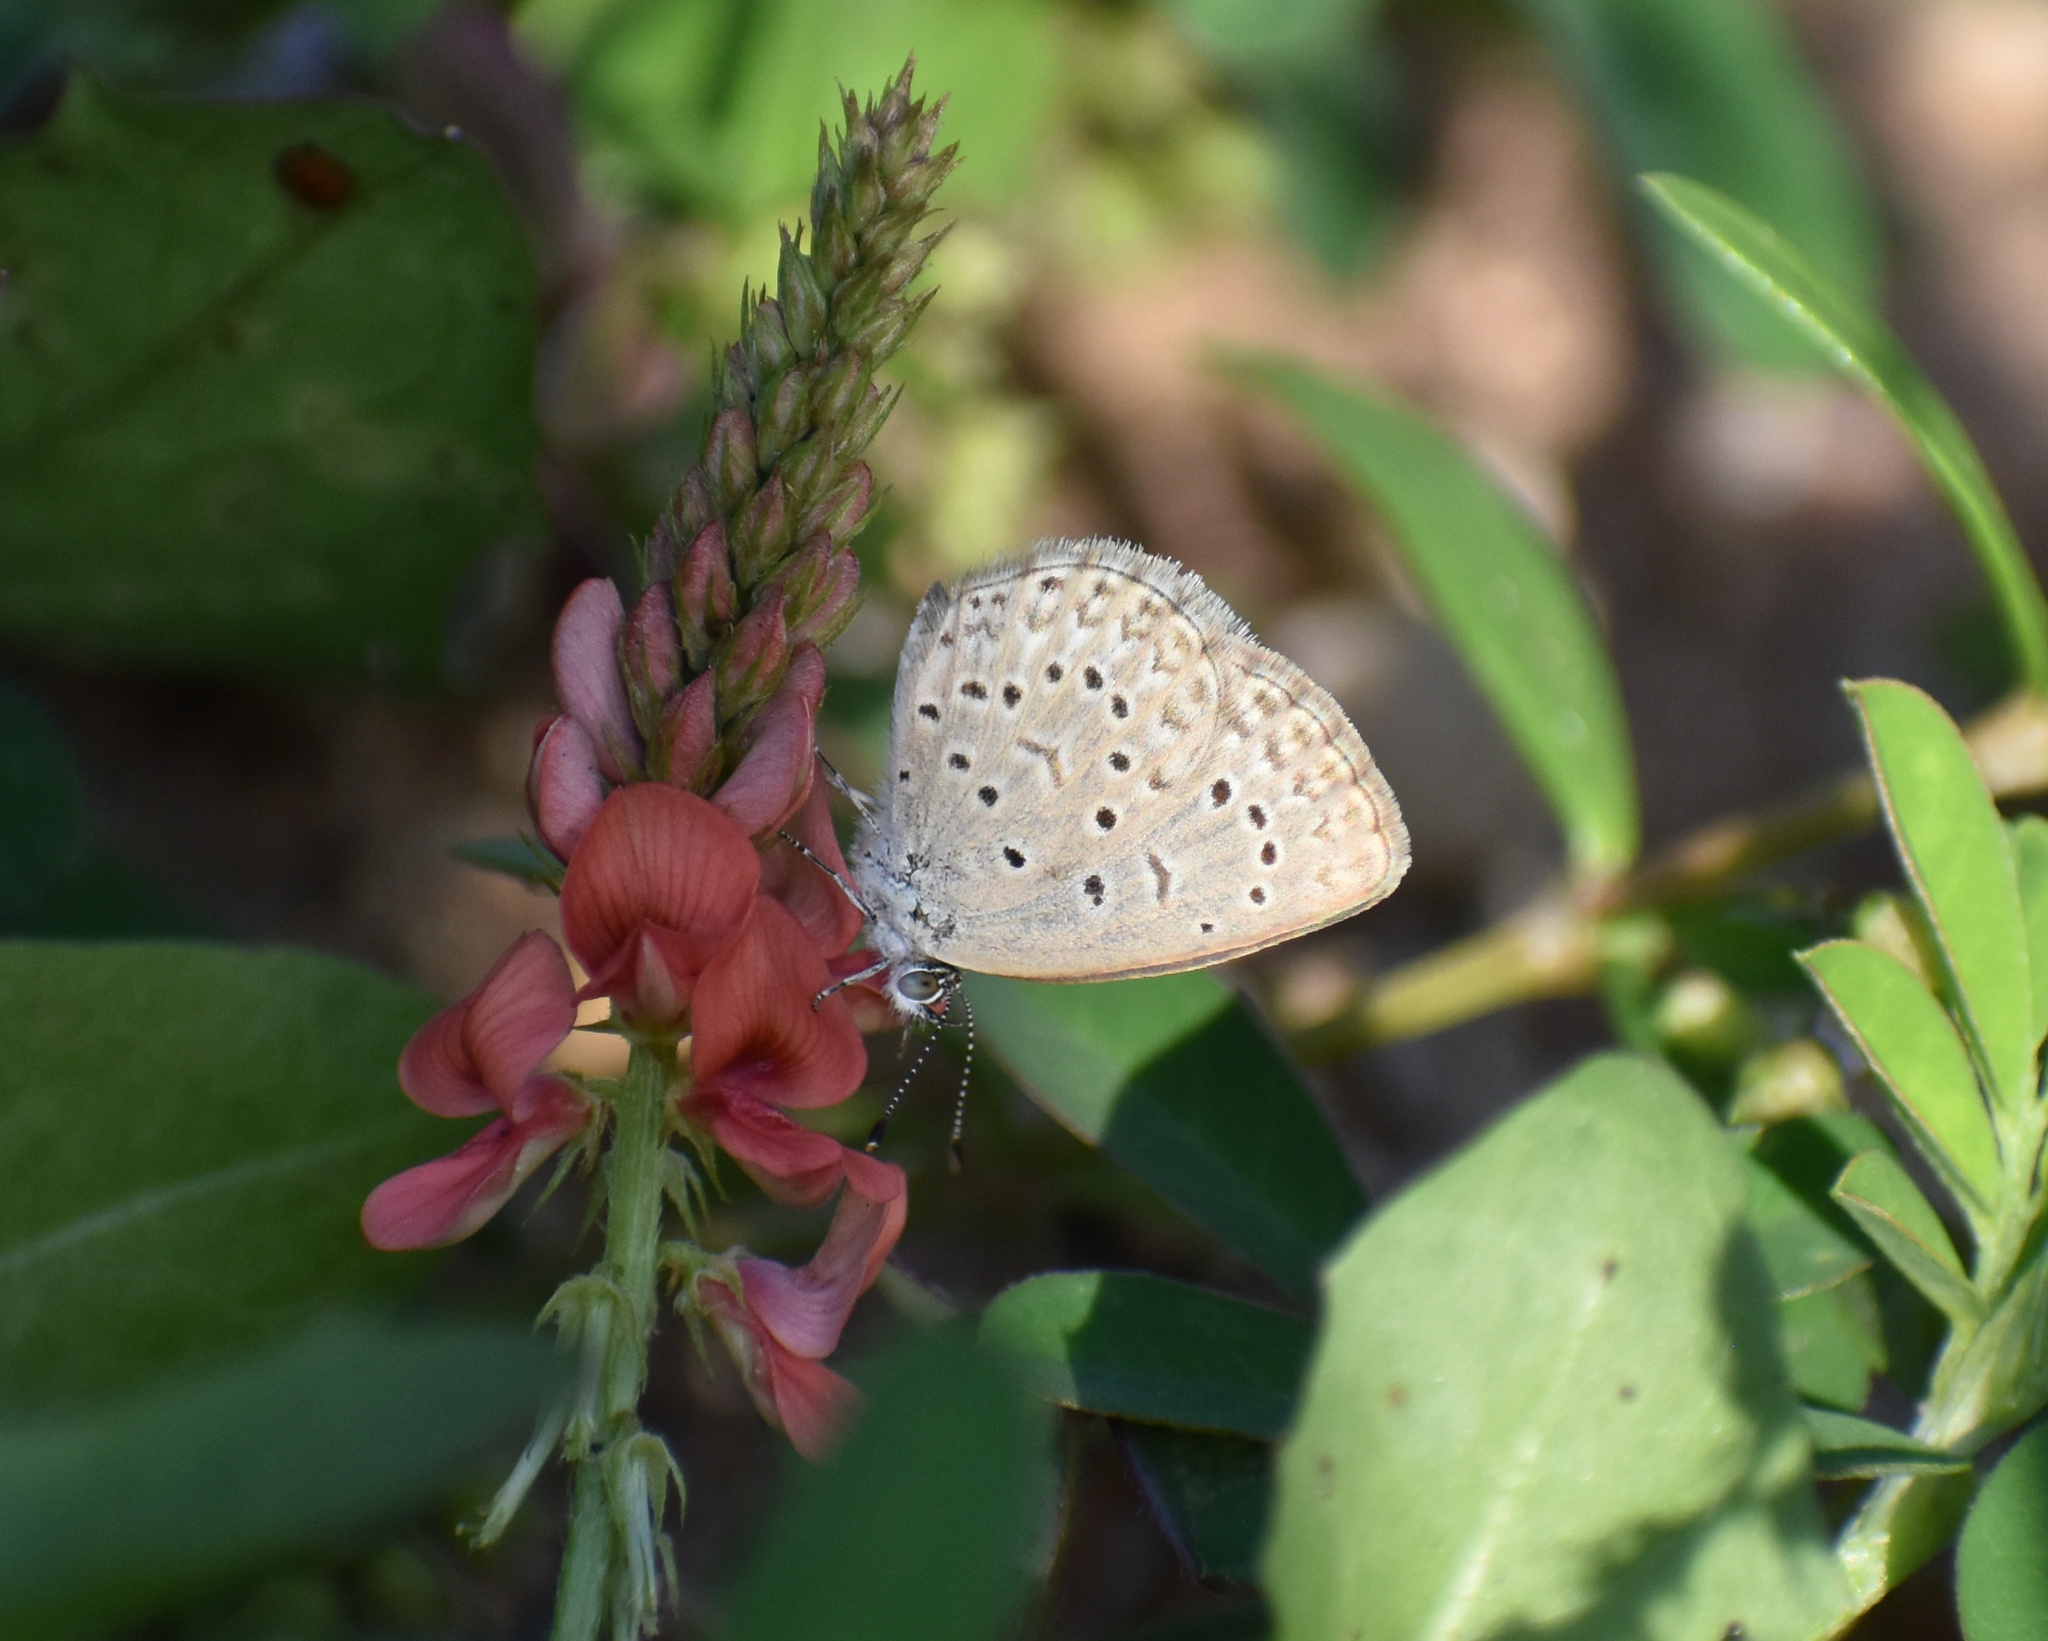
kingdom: Animalia
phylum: Arthropoda
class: Insecta
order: Lepidoptera
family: Lycaenidae
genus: Zizeeria
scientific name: Zizeeria knysna
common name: African grass blue
